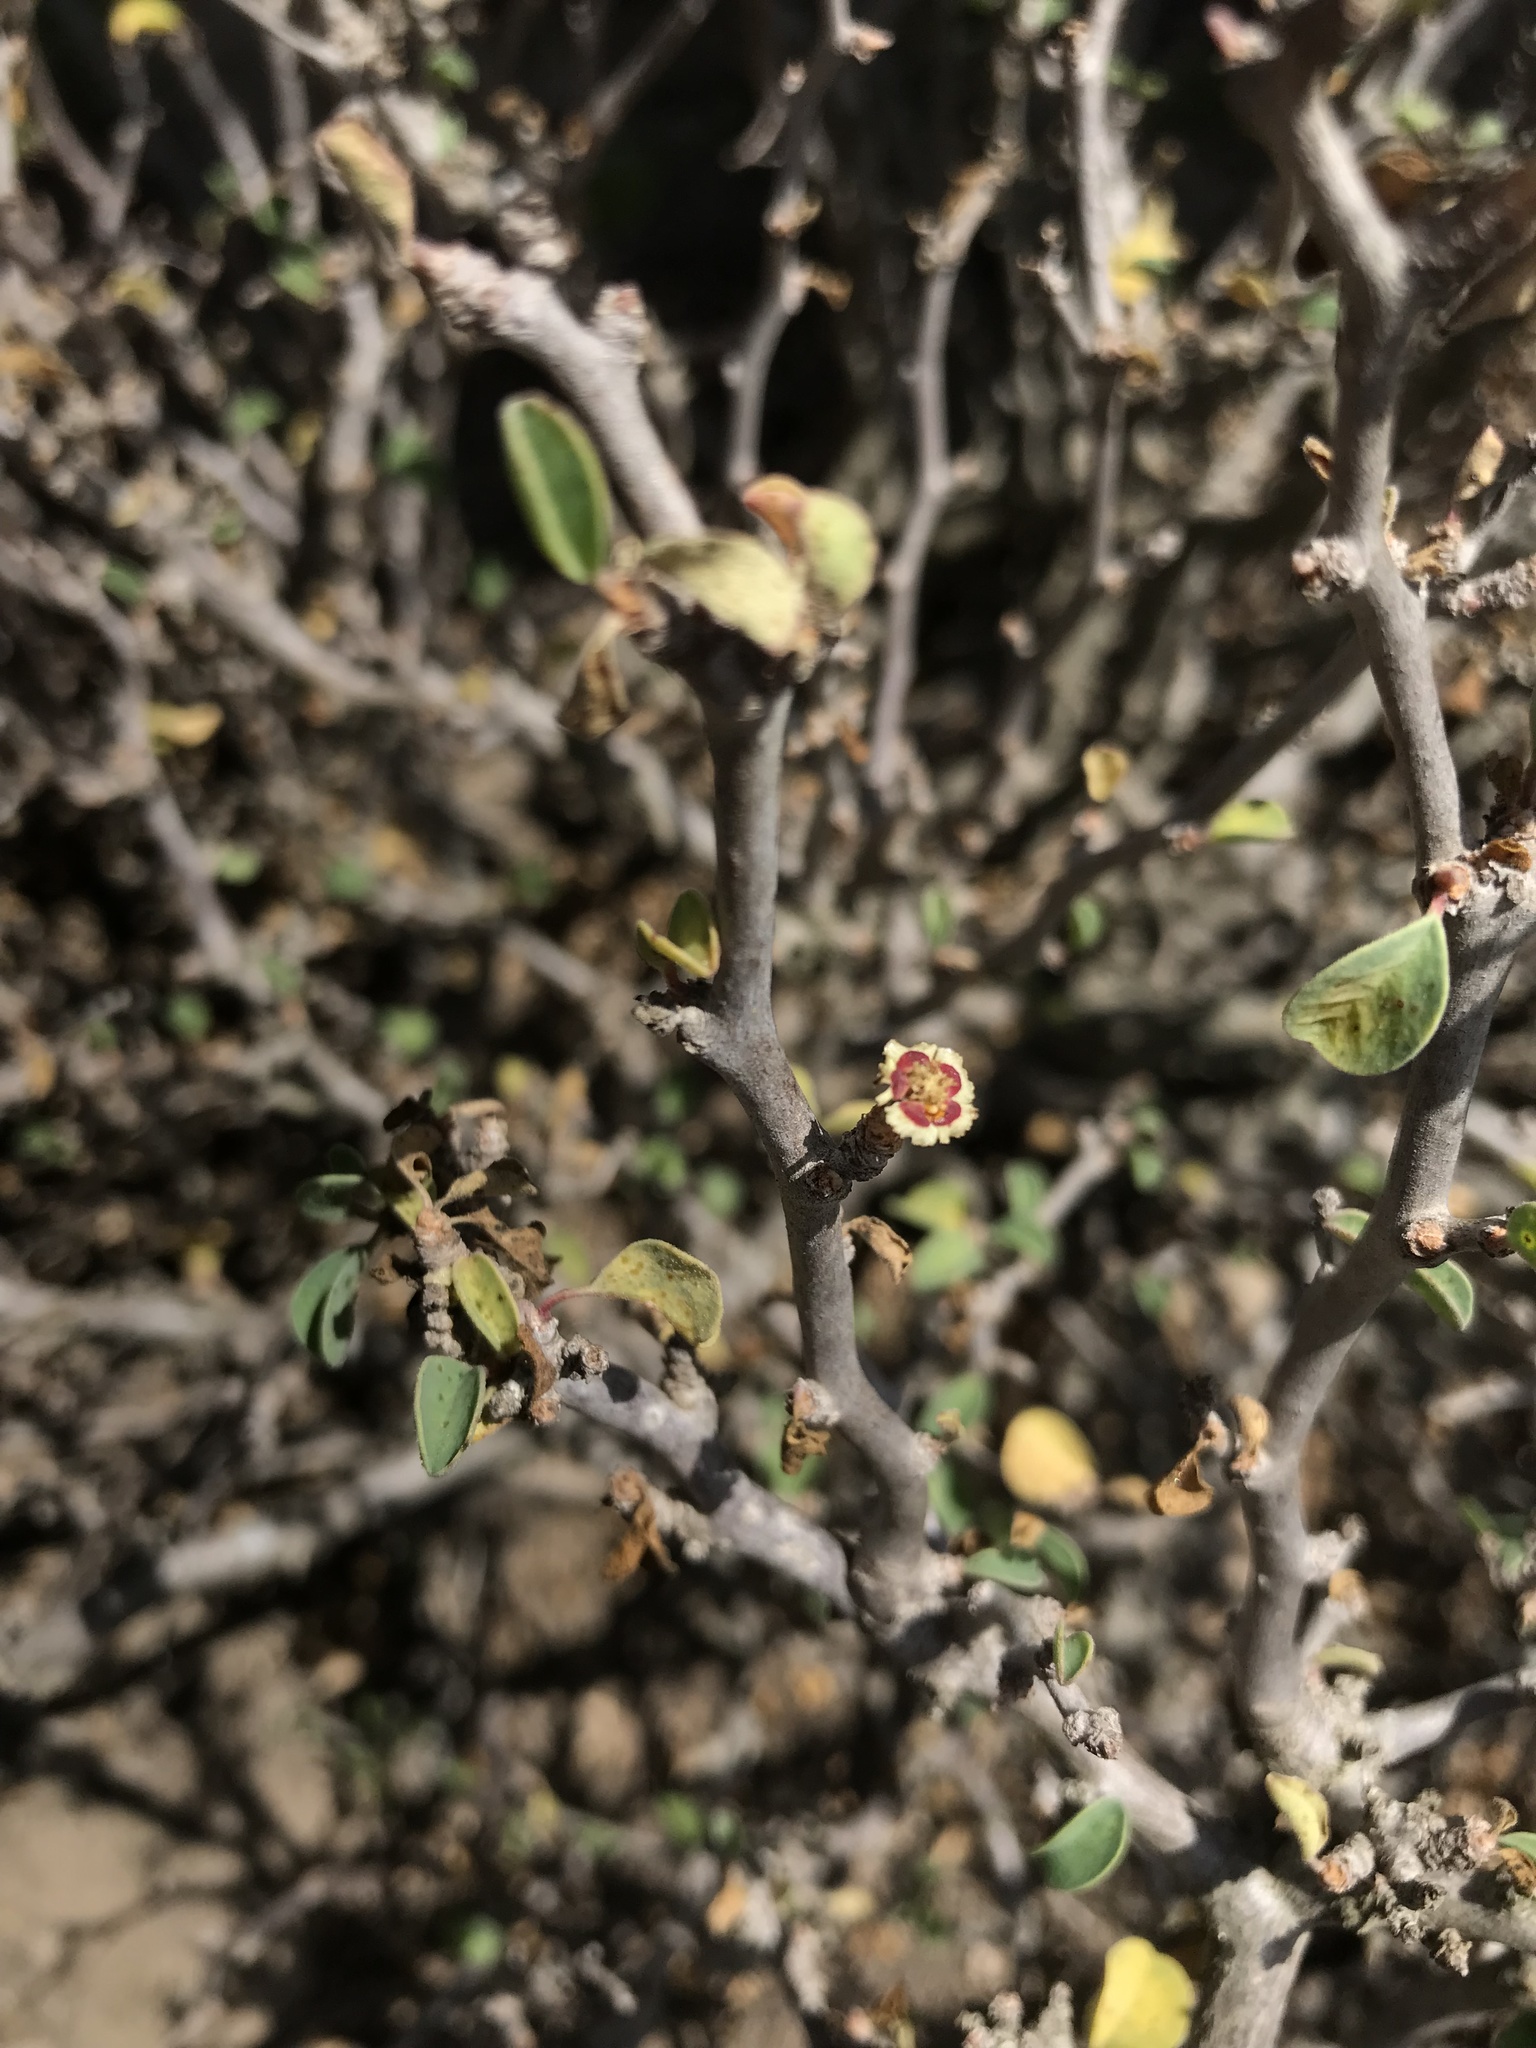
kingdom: Plantae
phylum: Tracheophyta
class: Magnoliopsida
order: Malpighiales
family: Euphorbiaceae
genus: Euphorbia
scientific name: Euphorbia misera
